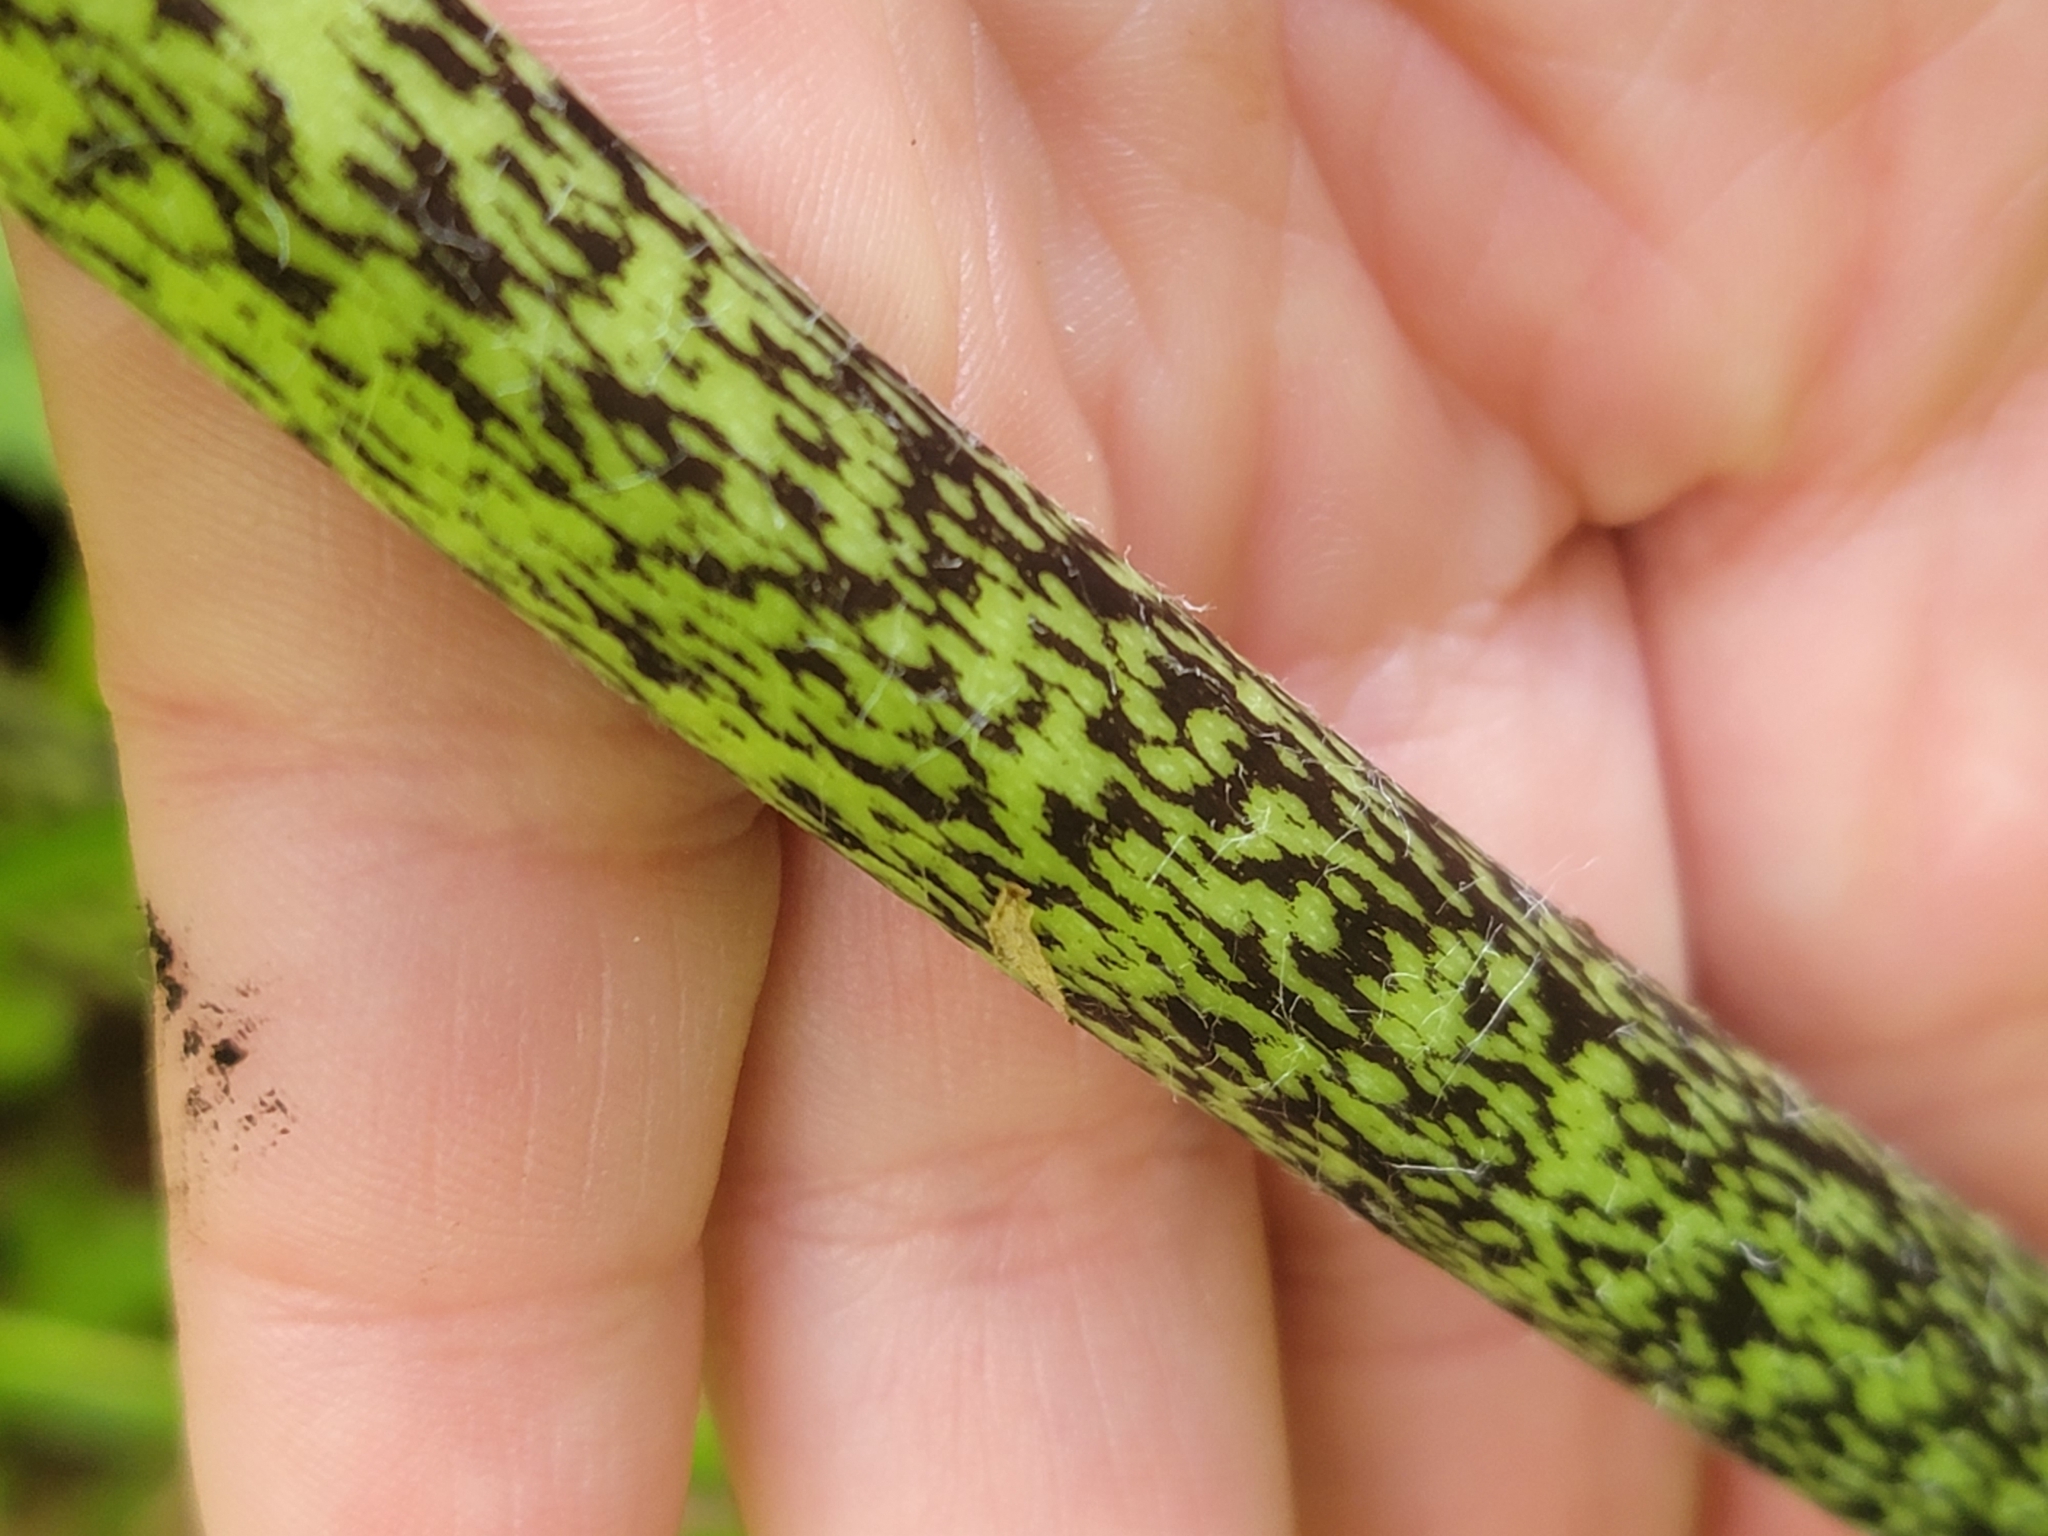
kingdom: Plantae
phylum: Tracheophyta
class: Magnoliopsida
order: Ranunculales
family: Ranunculaceae
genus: Ranunculus
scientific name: Ranunculus lyallii
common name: Mountain-lily
